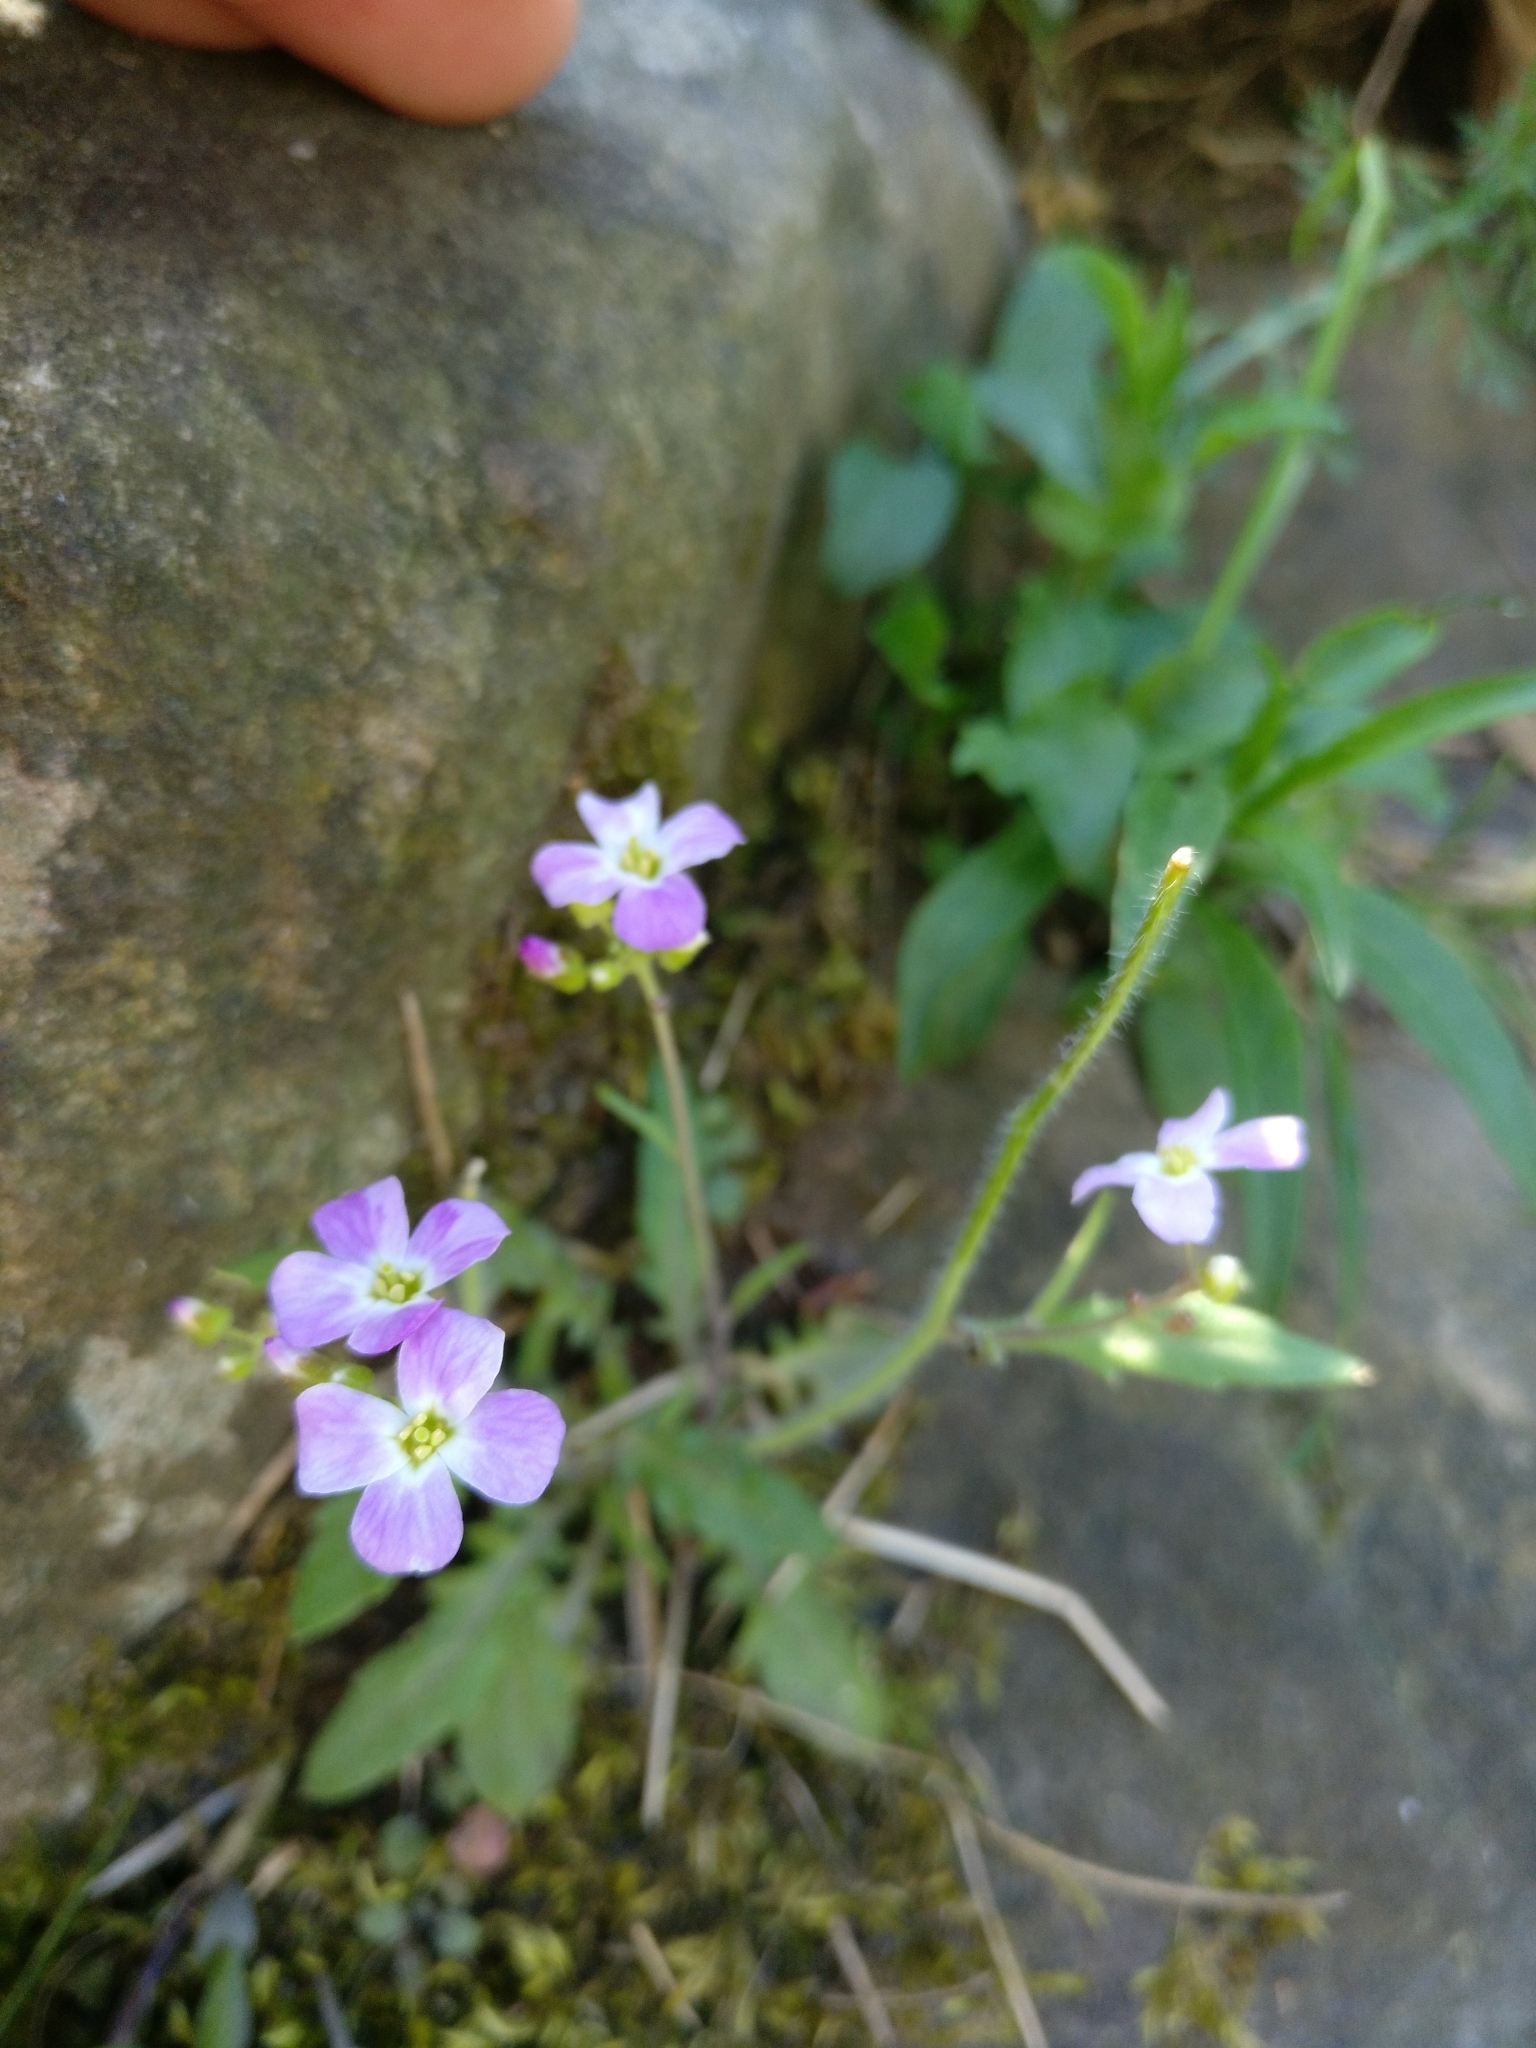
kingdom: Plantae
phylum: Tracheophyta
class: Magnoliopsida
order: Brassicales
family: Brassicaceae
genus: Arabidopsis
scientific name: Arabidopsis arenosa
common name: Sand rock-cress
